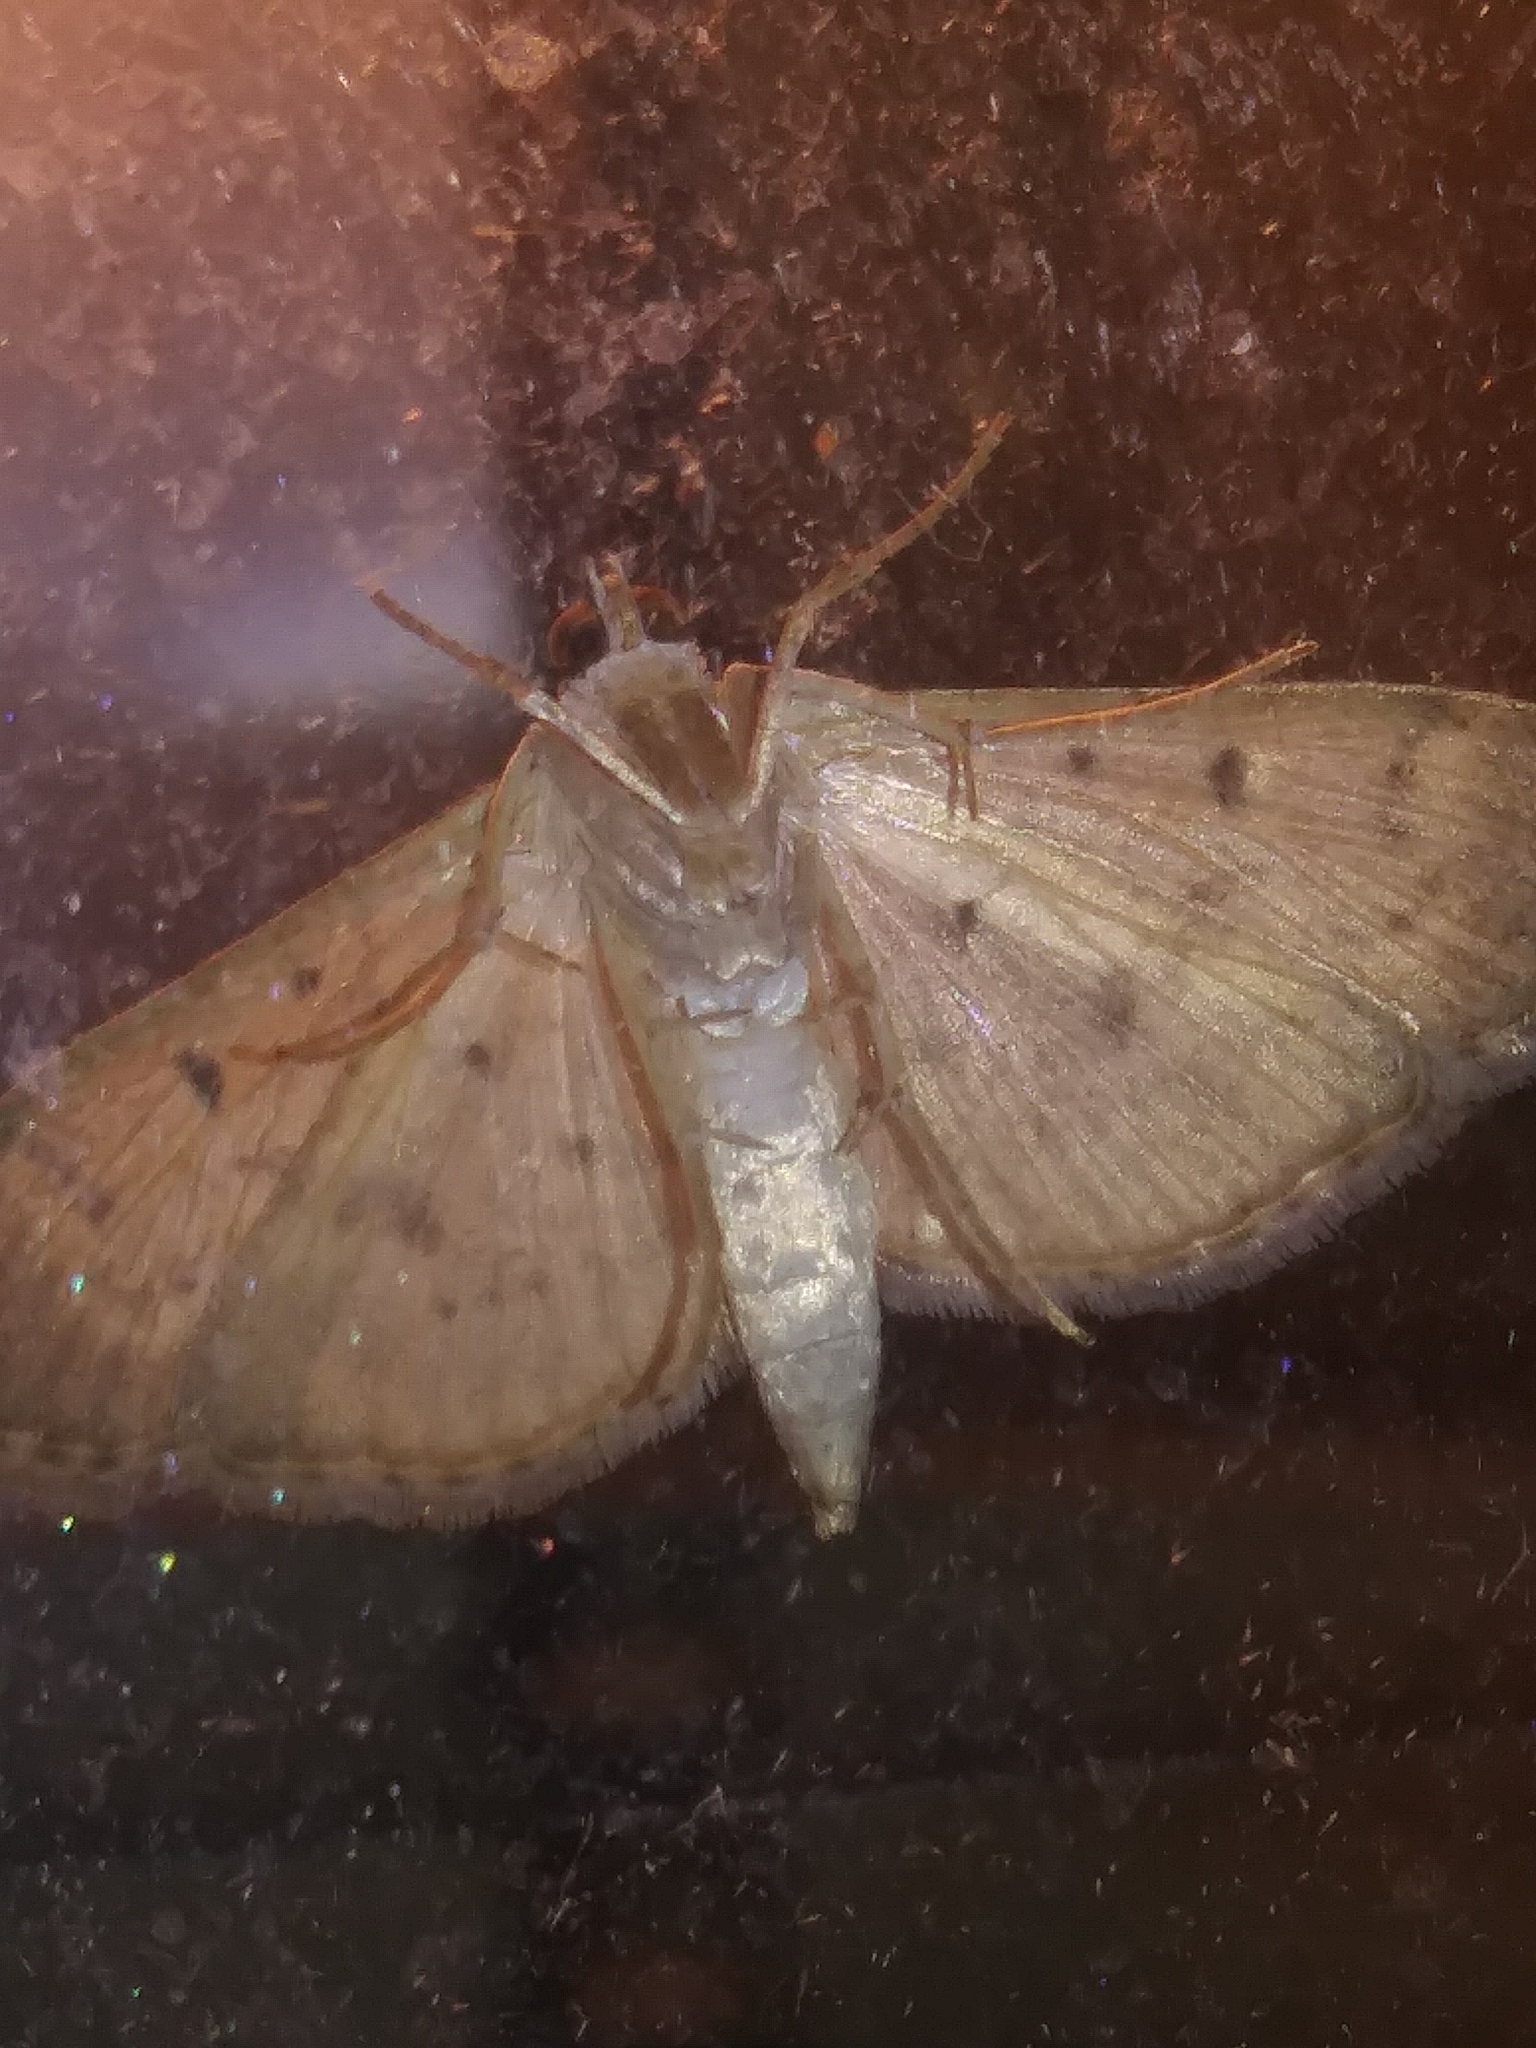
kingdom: Animalia
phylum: Arthropoda
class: Insecta
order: Lepidoptera
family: Crambidae
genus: Herpetogramma
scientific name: Herpetogramma bipunctalis
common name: Southern beet webworm
